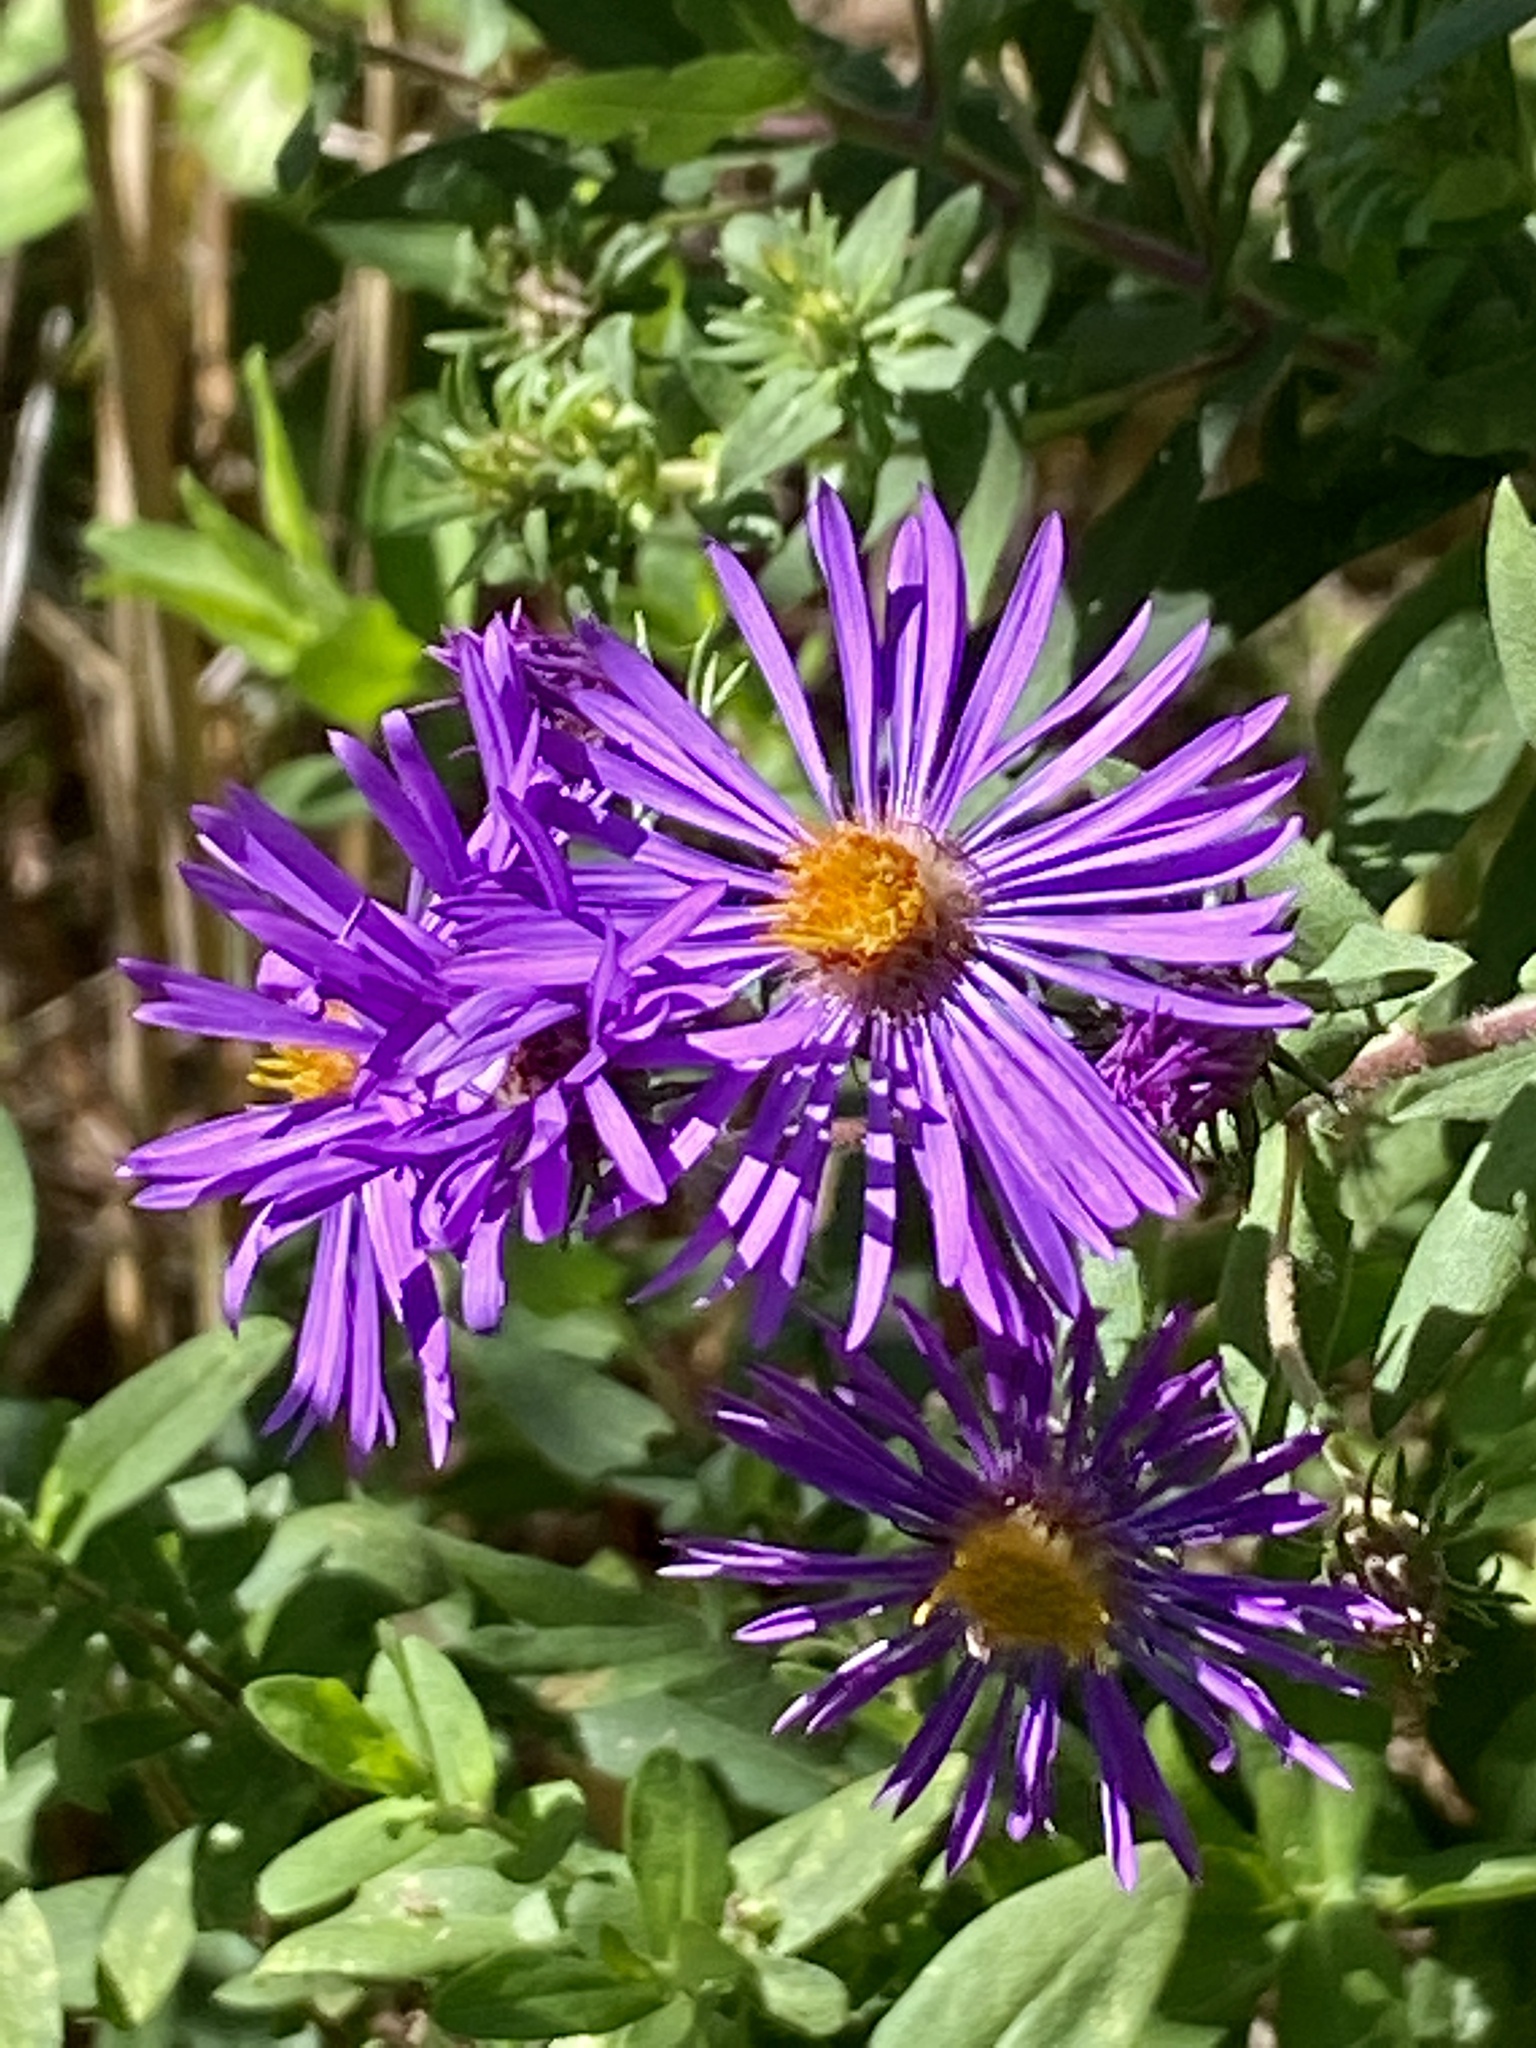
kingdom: Plantae
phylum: Tracheophyta
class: Magnoliopsida
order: Asterales
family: Asteraceae
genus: Symphyotrichum
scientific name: Symphyotrichum novae-angliae
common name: Michaelmas daisy
